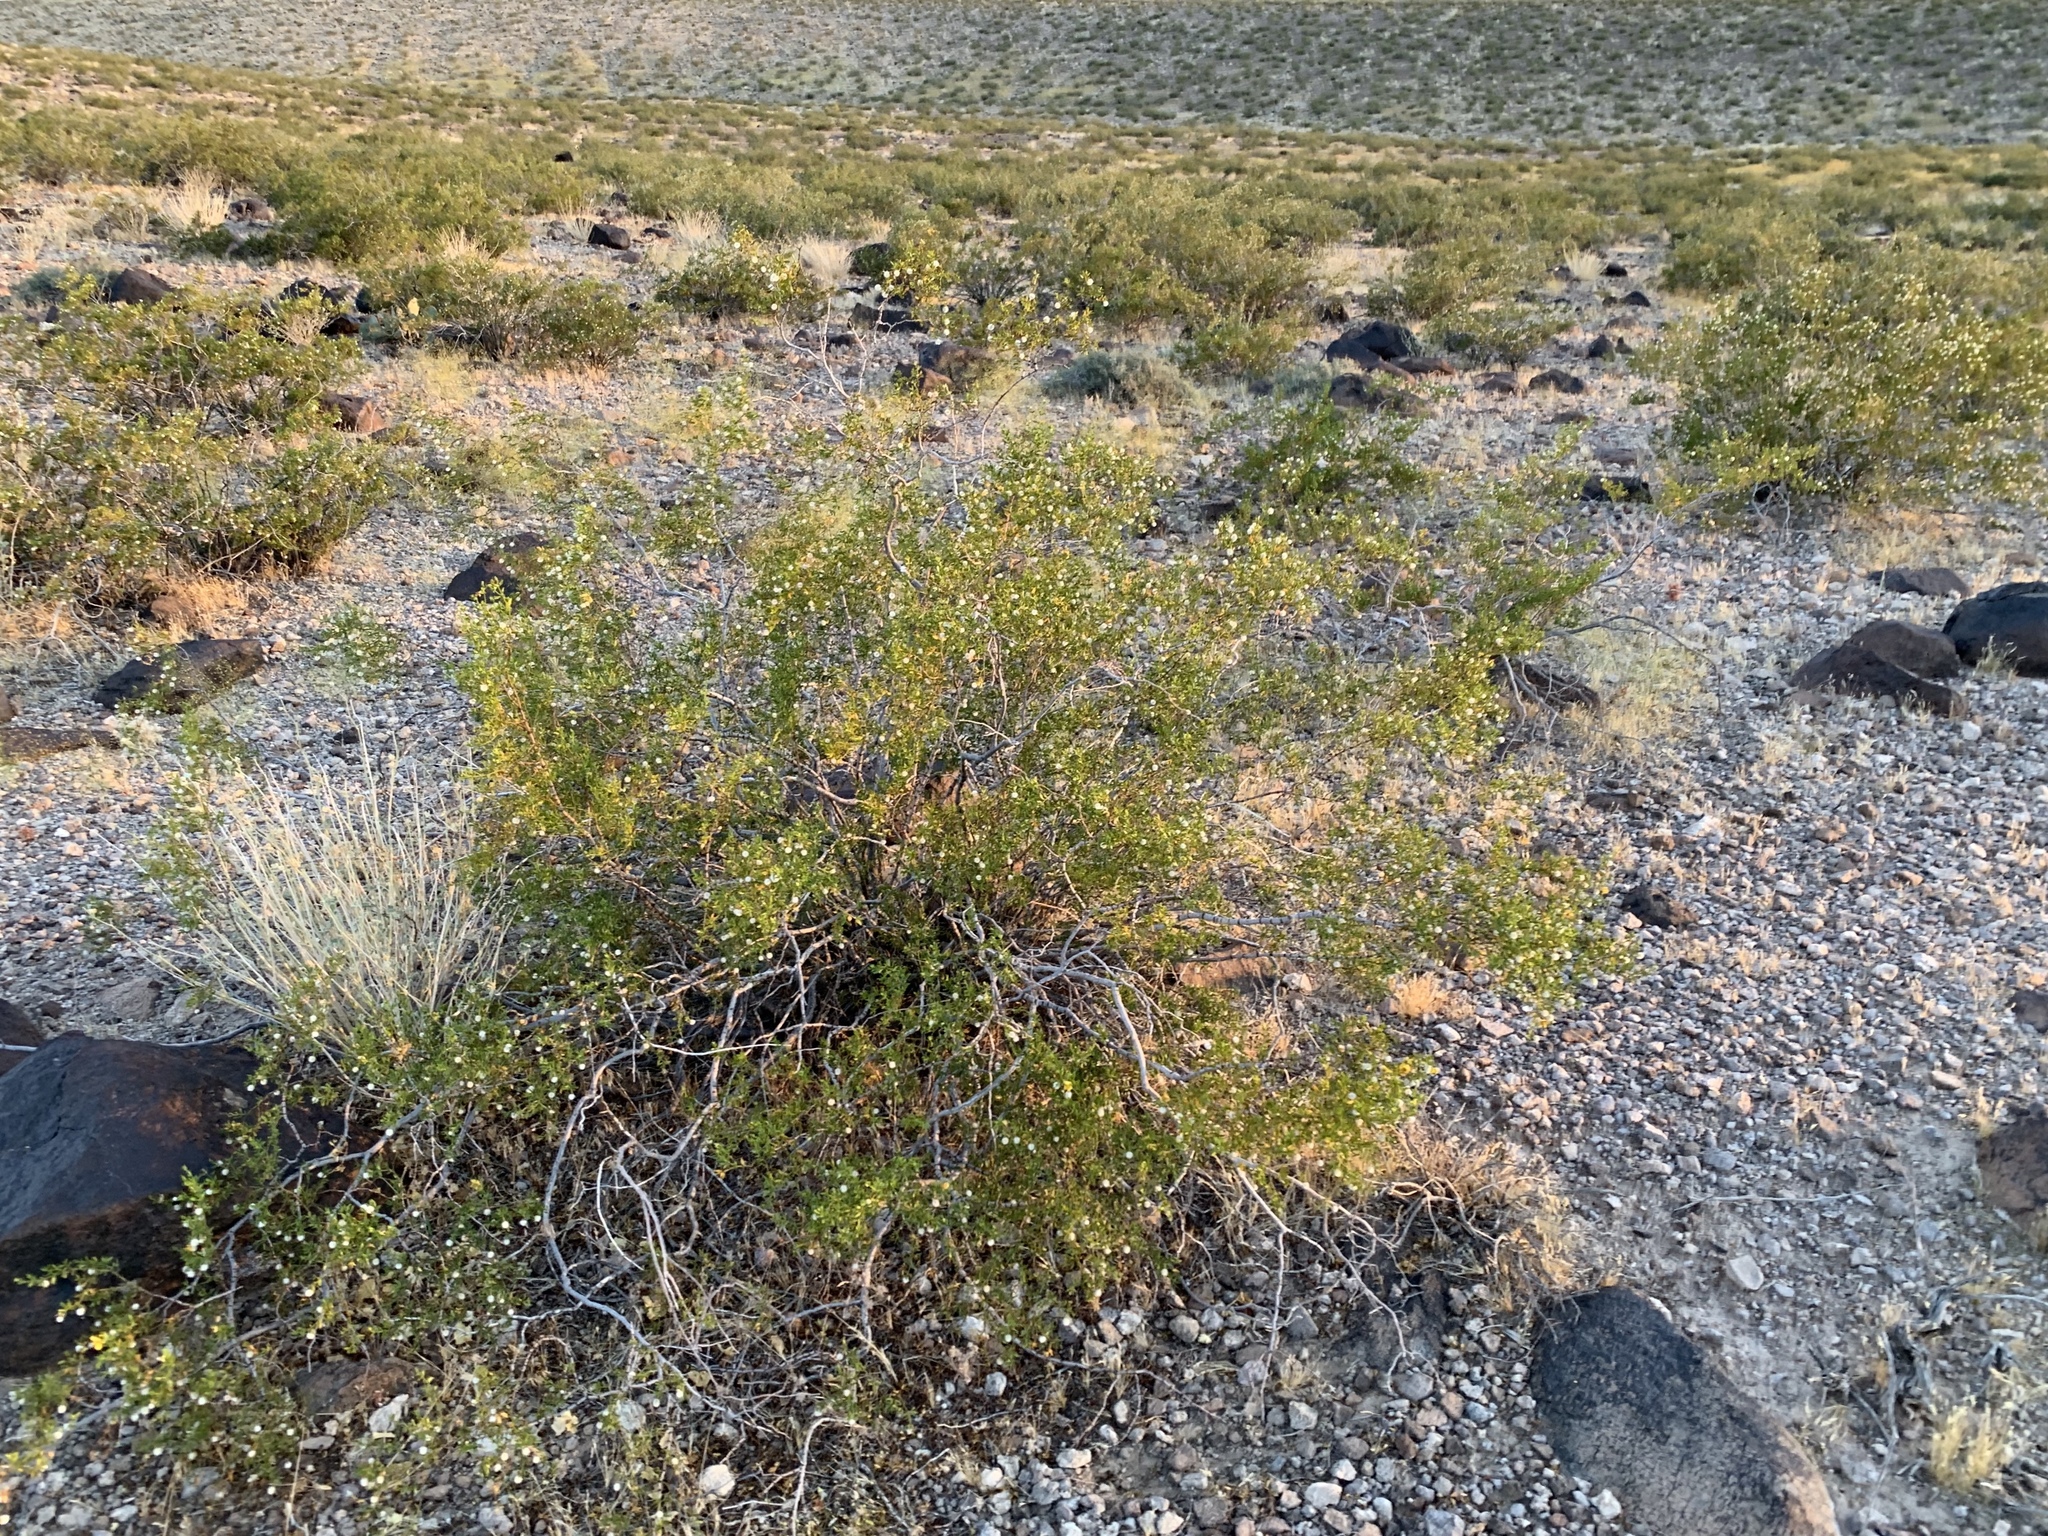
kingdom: Plantae
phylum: Tracheophyta
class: Magnoliopsida
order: Zygophyllales
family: Zygophyllaceae
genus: Larrea
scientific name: Larrea tridentata
